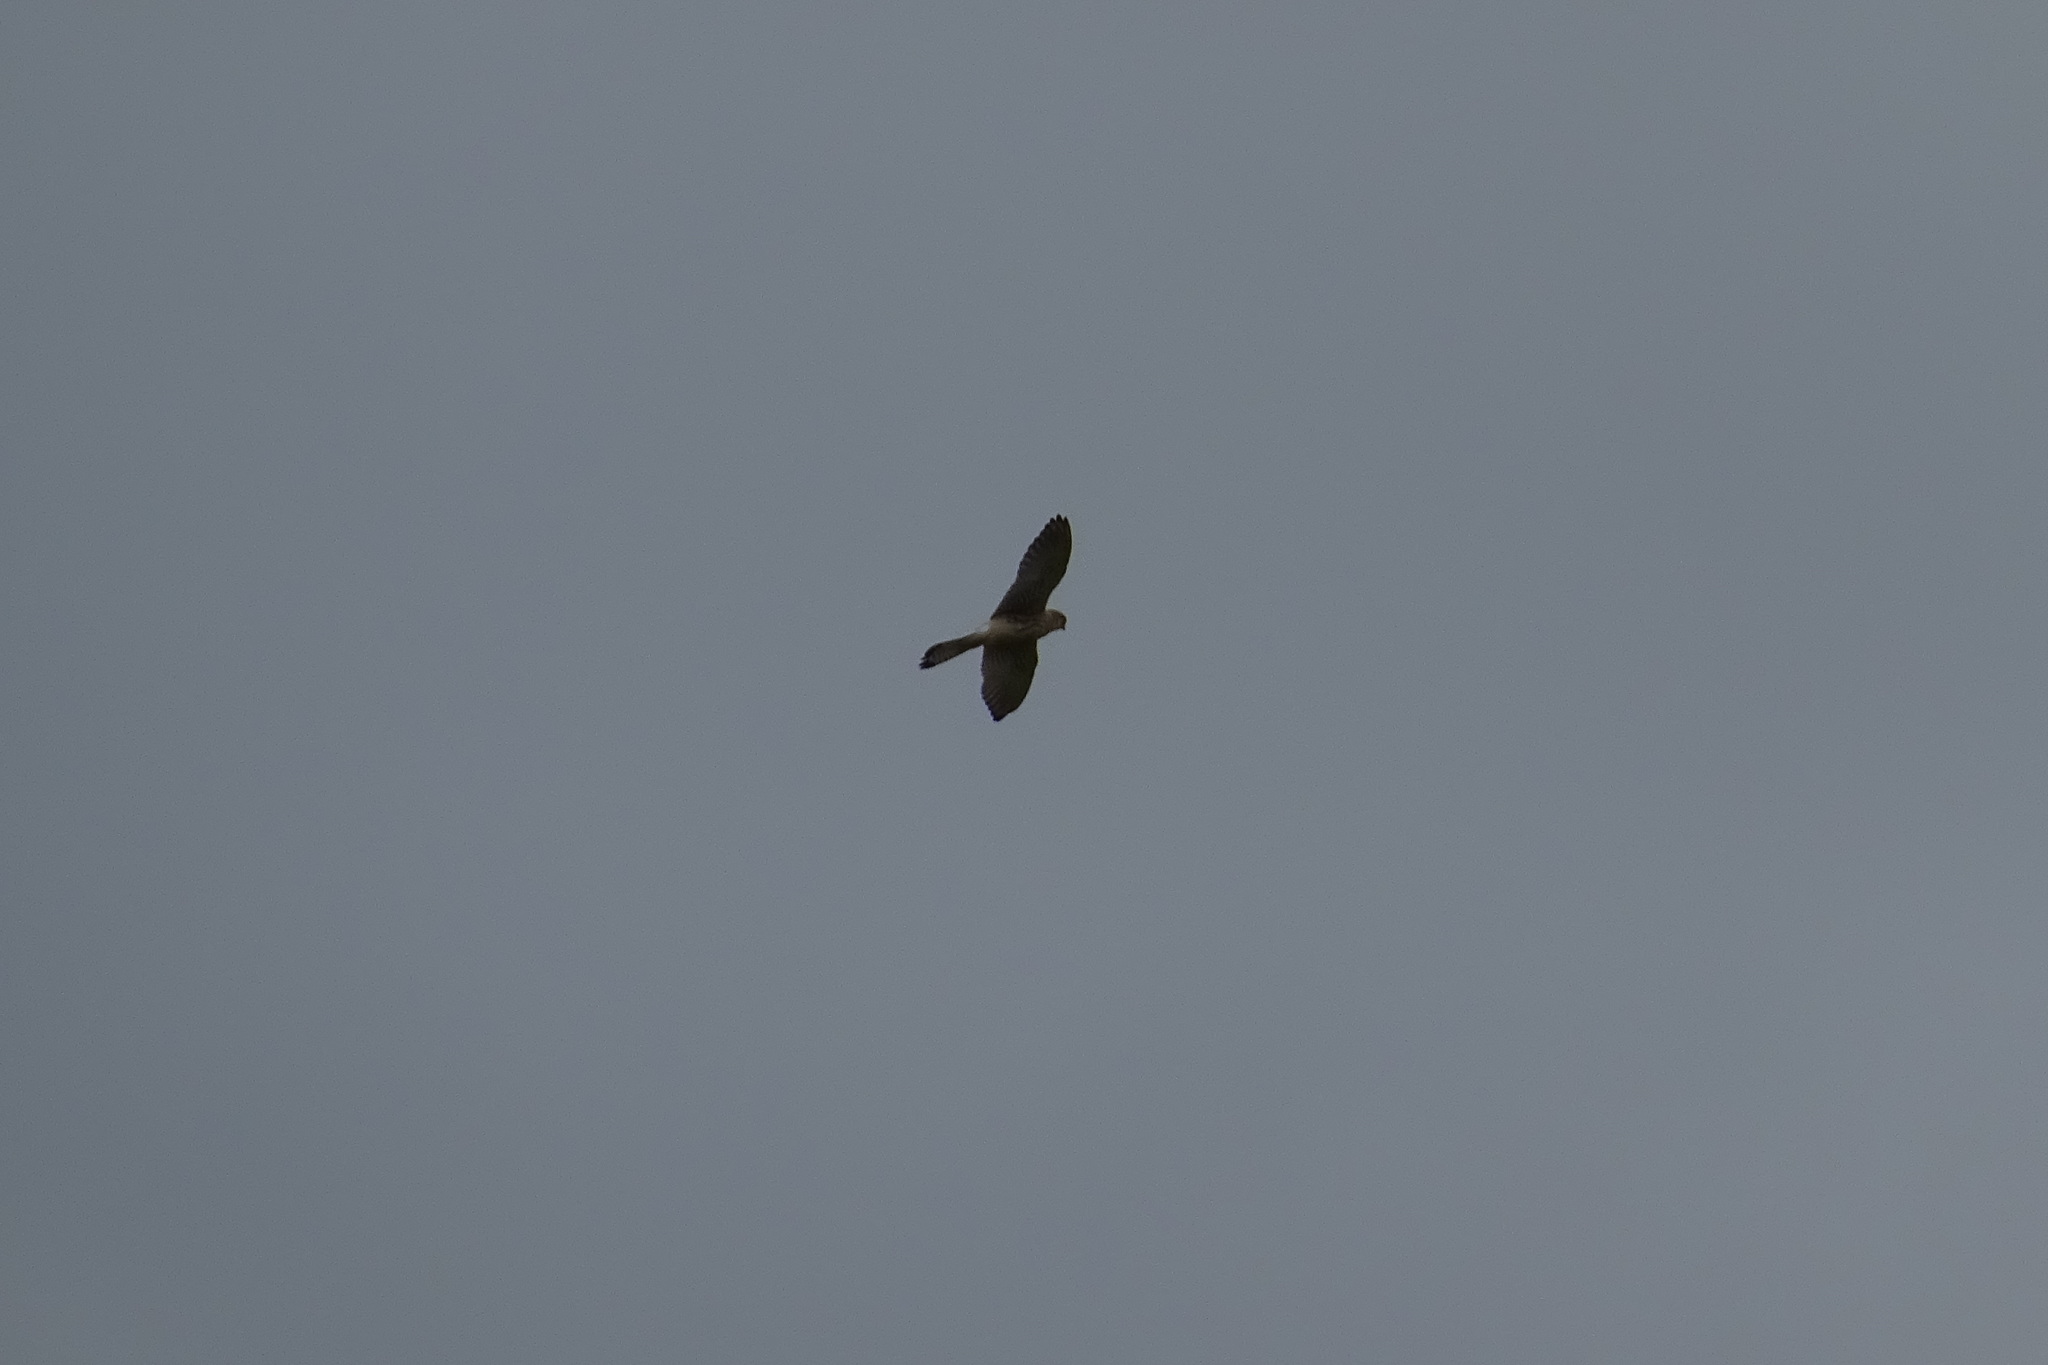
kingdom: Animalia
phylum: Chordata
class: Aves
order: Falconiformes
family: Falconidae
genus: Falco
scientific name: Falco tinnunculus
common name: Common kestrel
